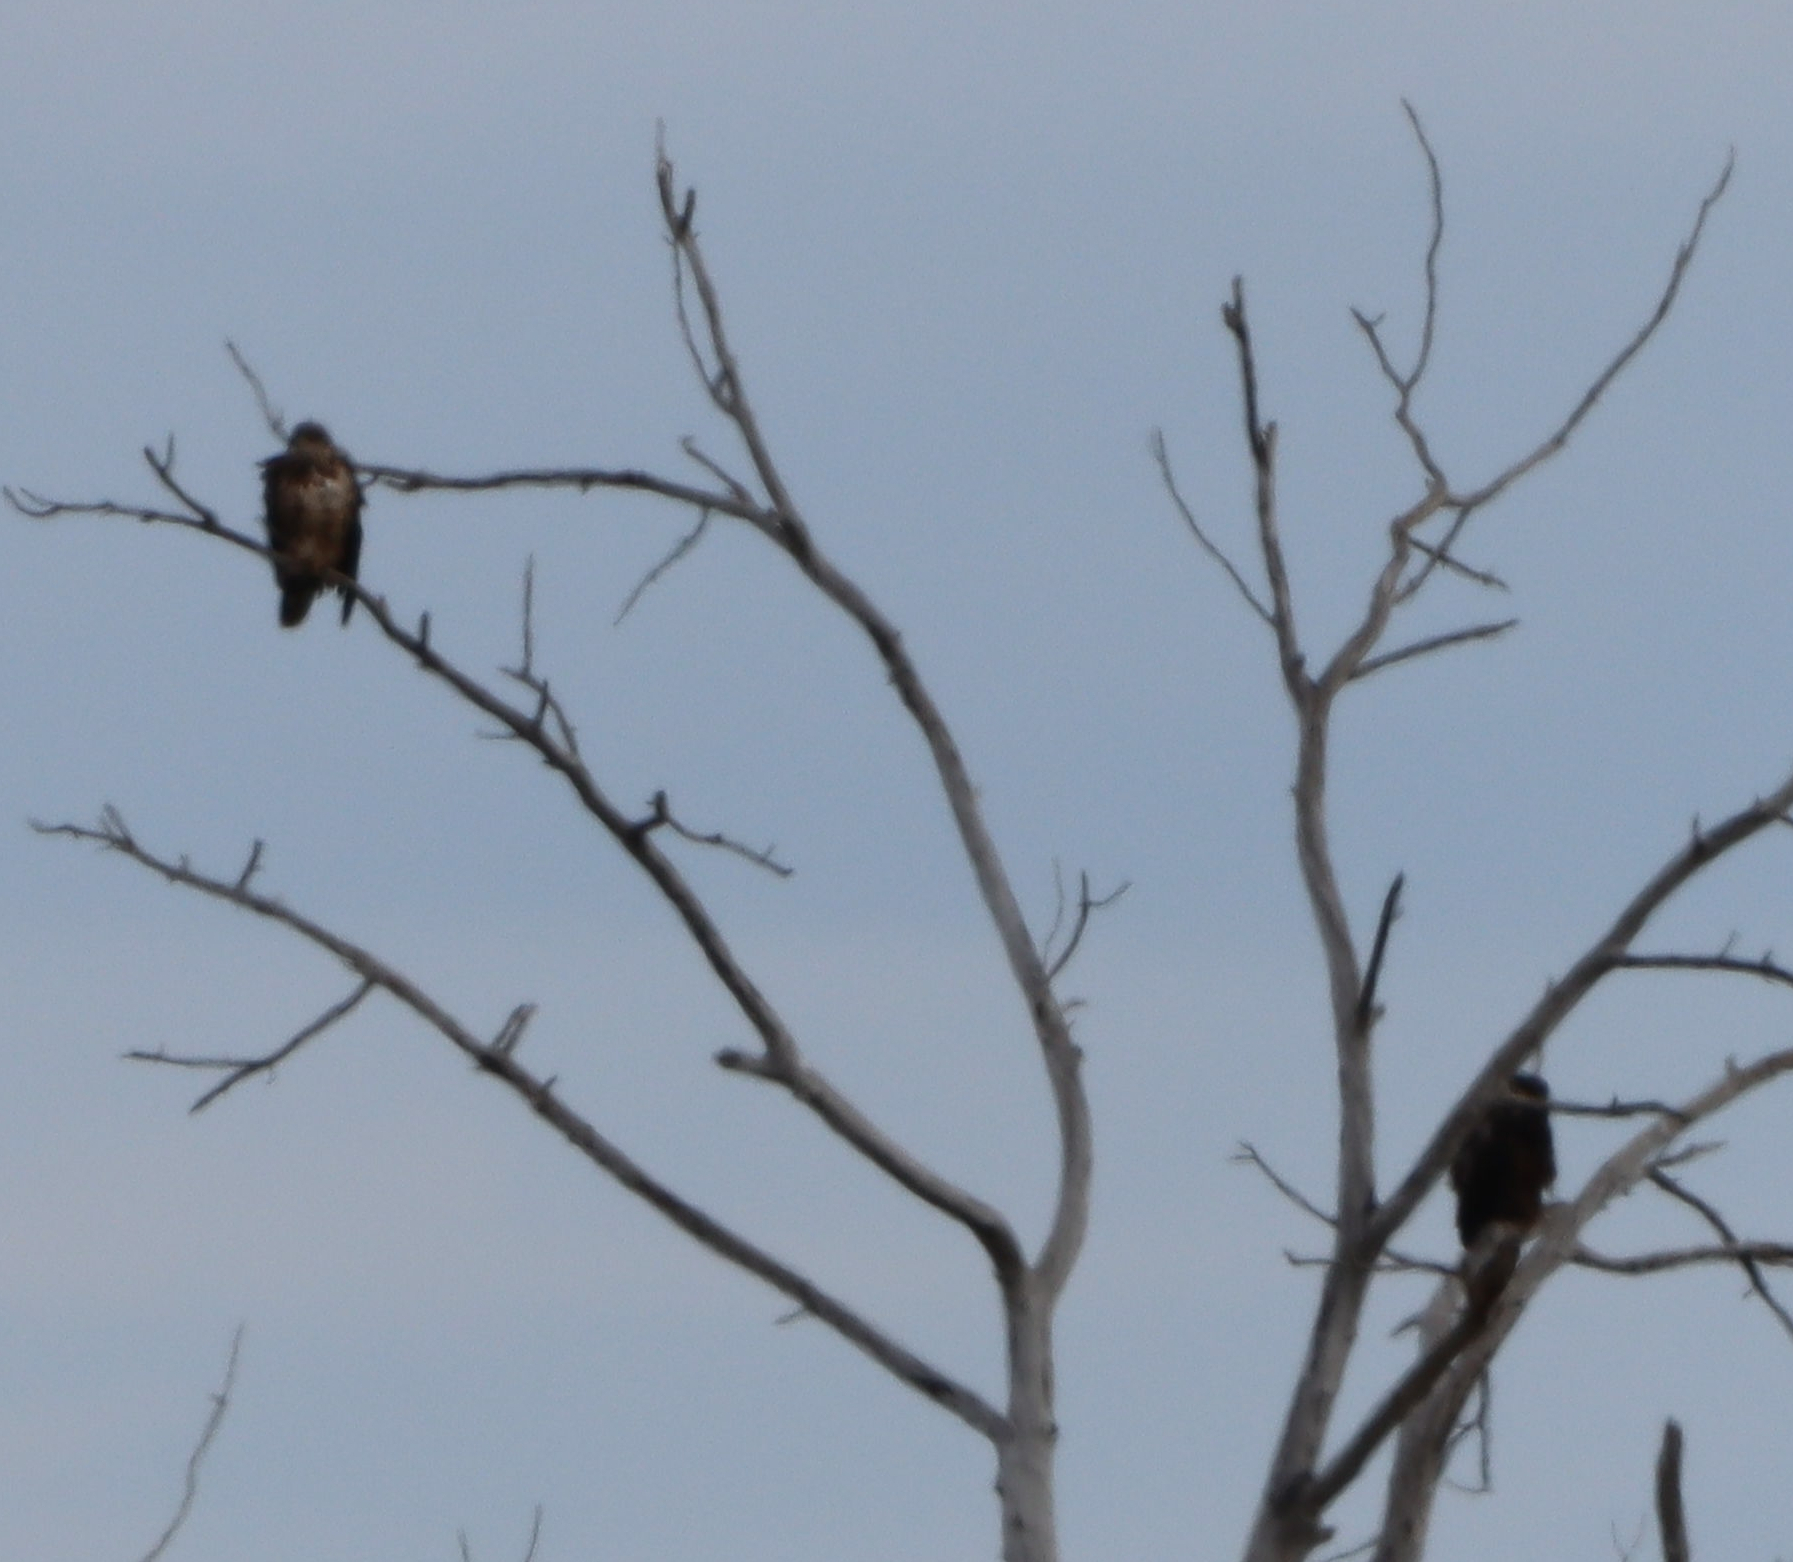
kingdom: Animalia
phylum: Chordata
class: Aves
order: Accipitriformes
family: Accipitridae
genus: Haliaeetus
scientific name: Haliaeetus leucocephalus
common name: Bald eagle
